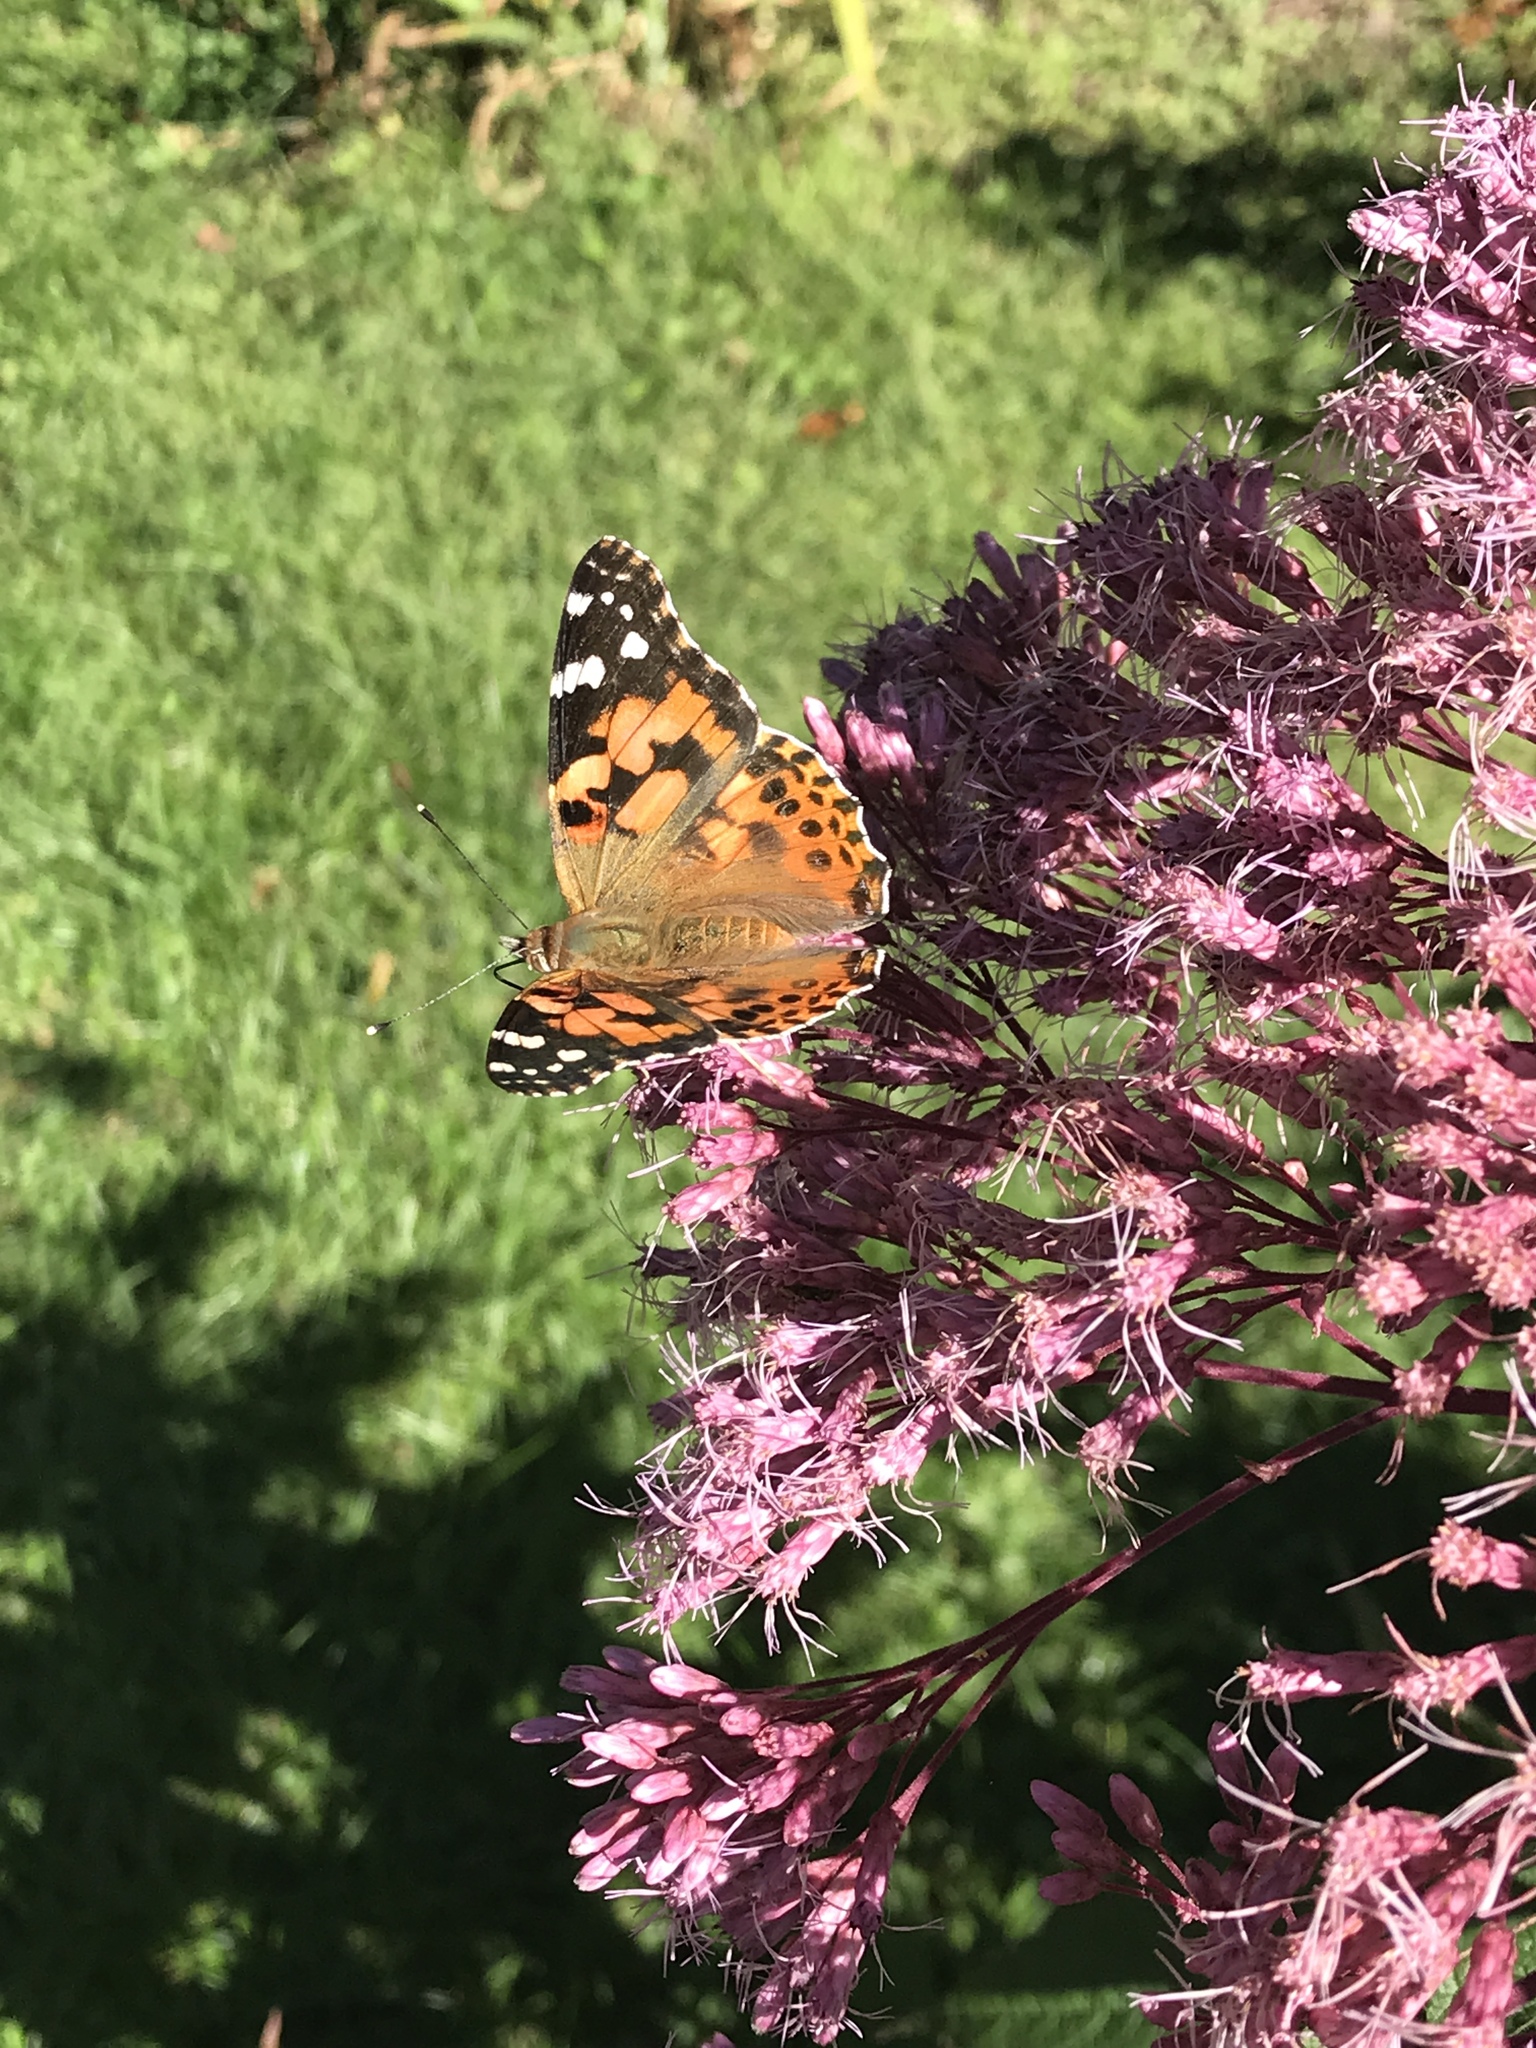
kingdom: Animalia
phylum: Arthropoda
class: Insecta
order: Lepidoptera
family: Nymphalidae
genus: Vanessa
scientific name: Vanessa cardui
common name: Painted lady
